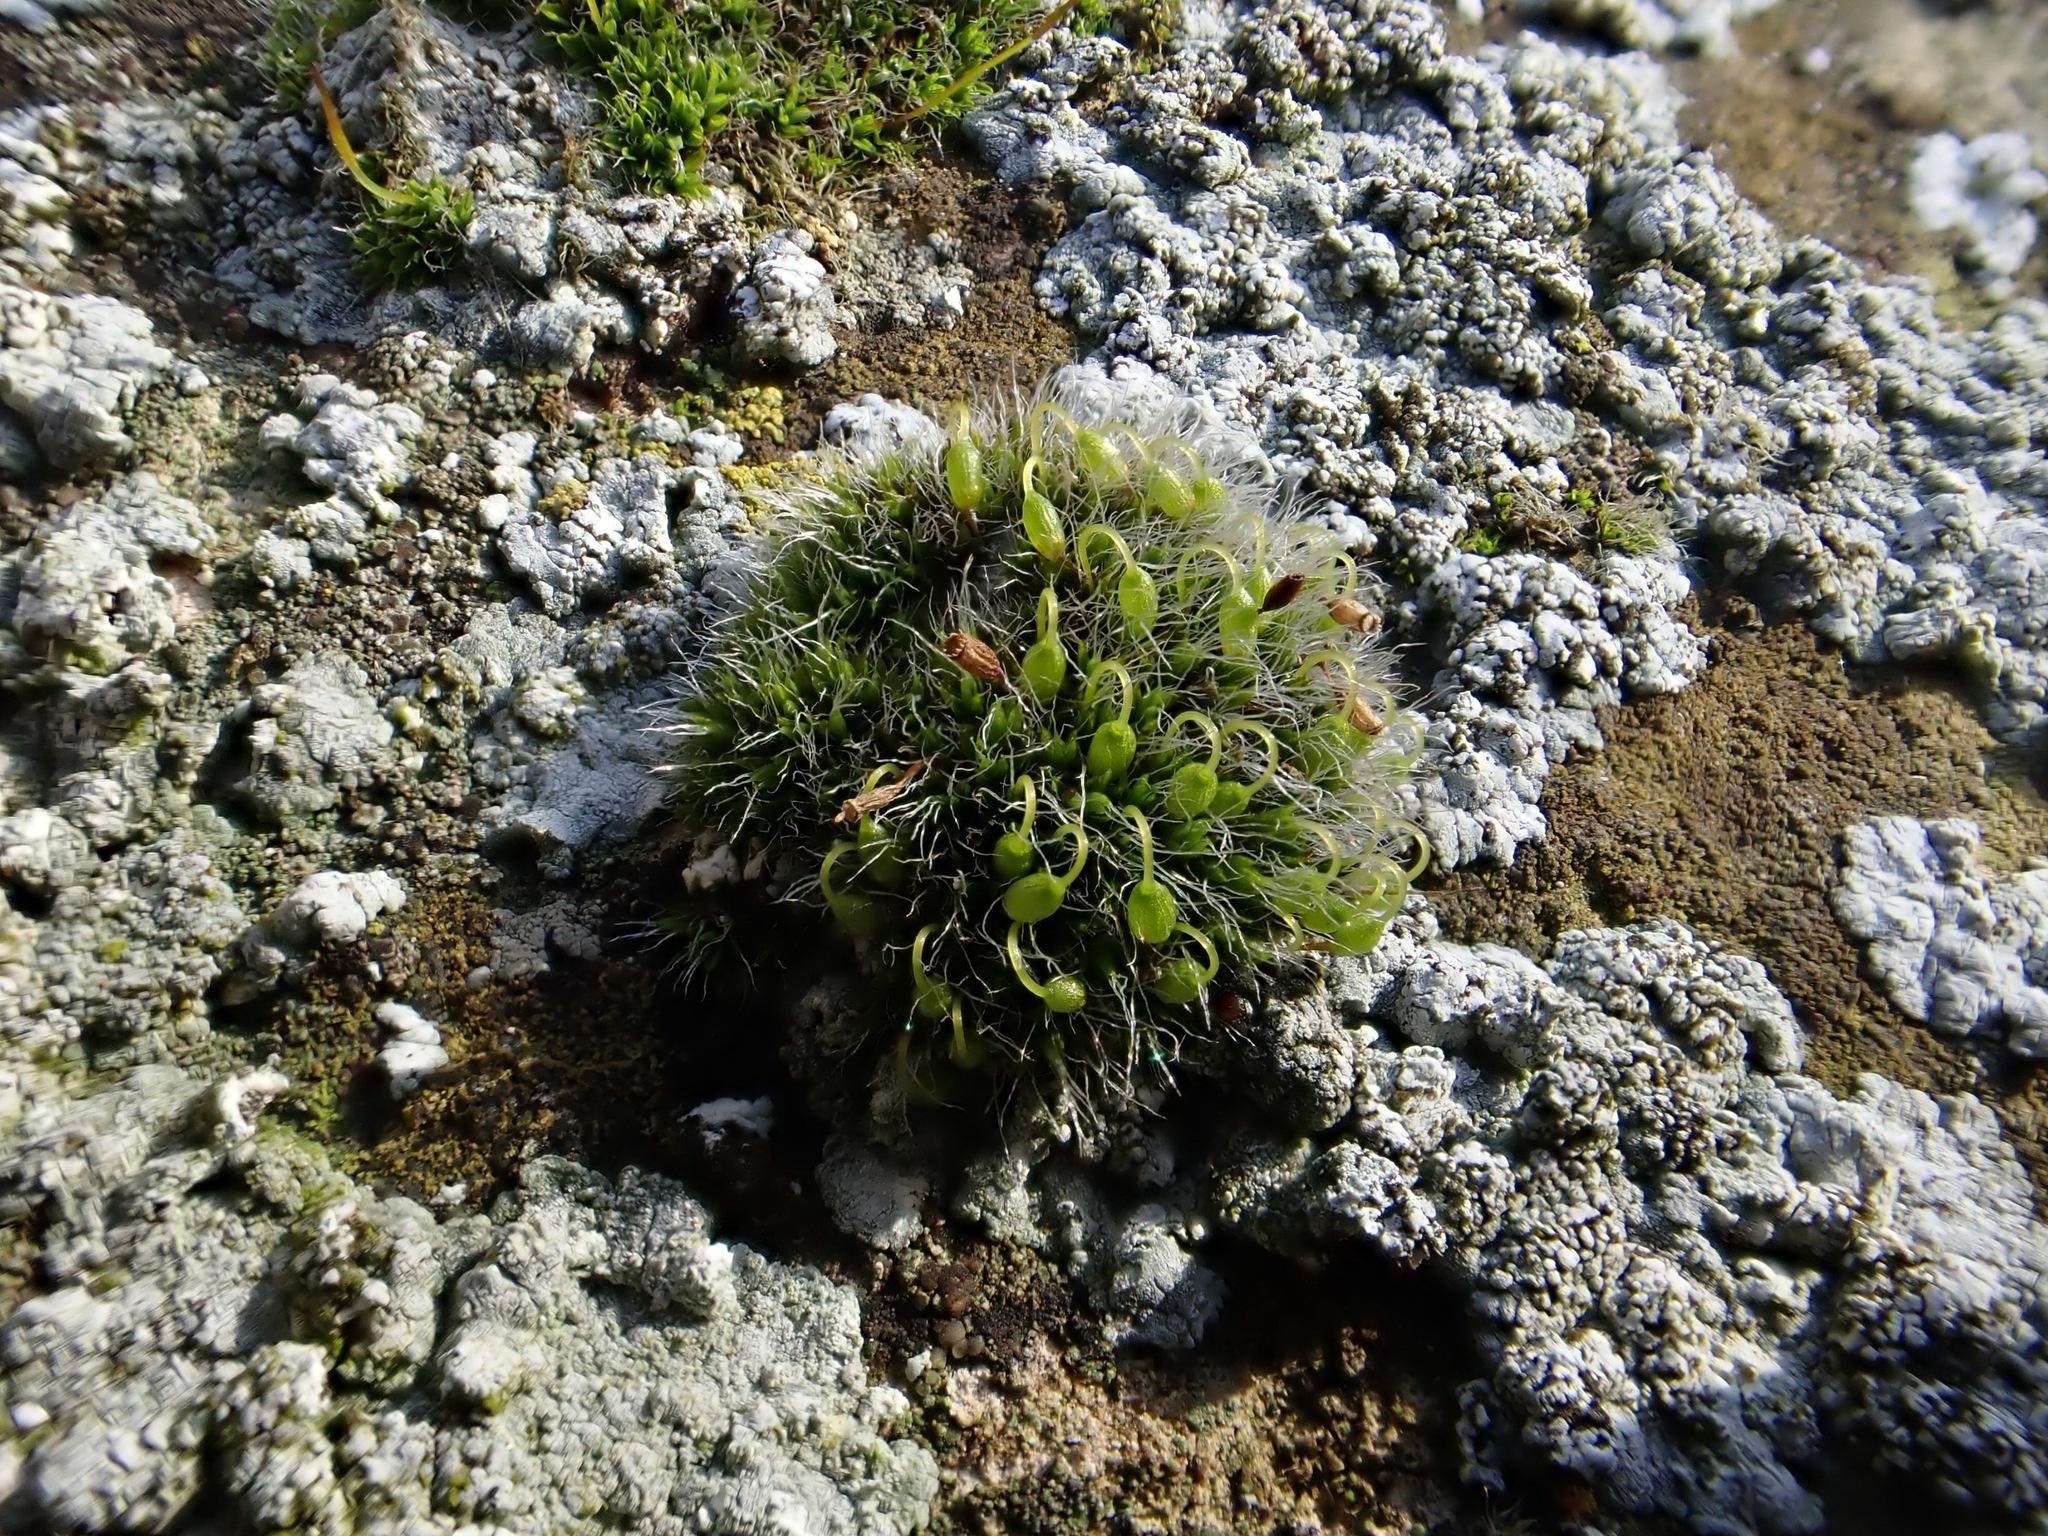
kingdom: Plantae
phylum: Bryophyta
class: Bryopsida
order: Grimmiales
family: Grimmiaceae
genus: Grimmia
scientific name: Grimmia pulvinata
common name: Grey-cushioned grimmia
